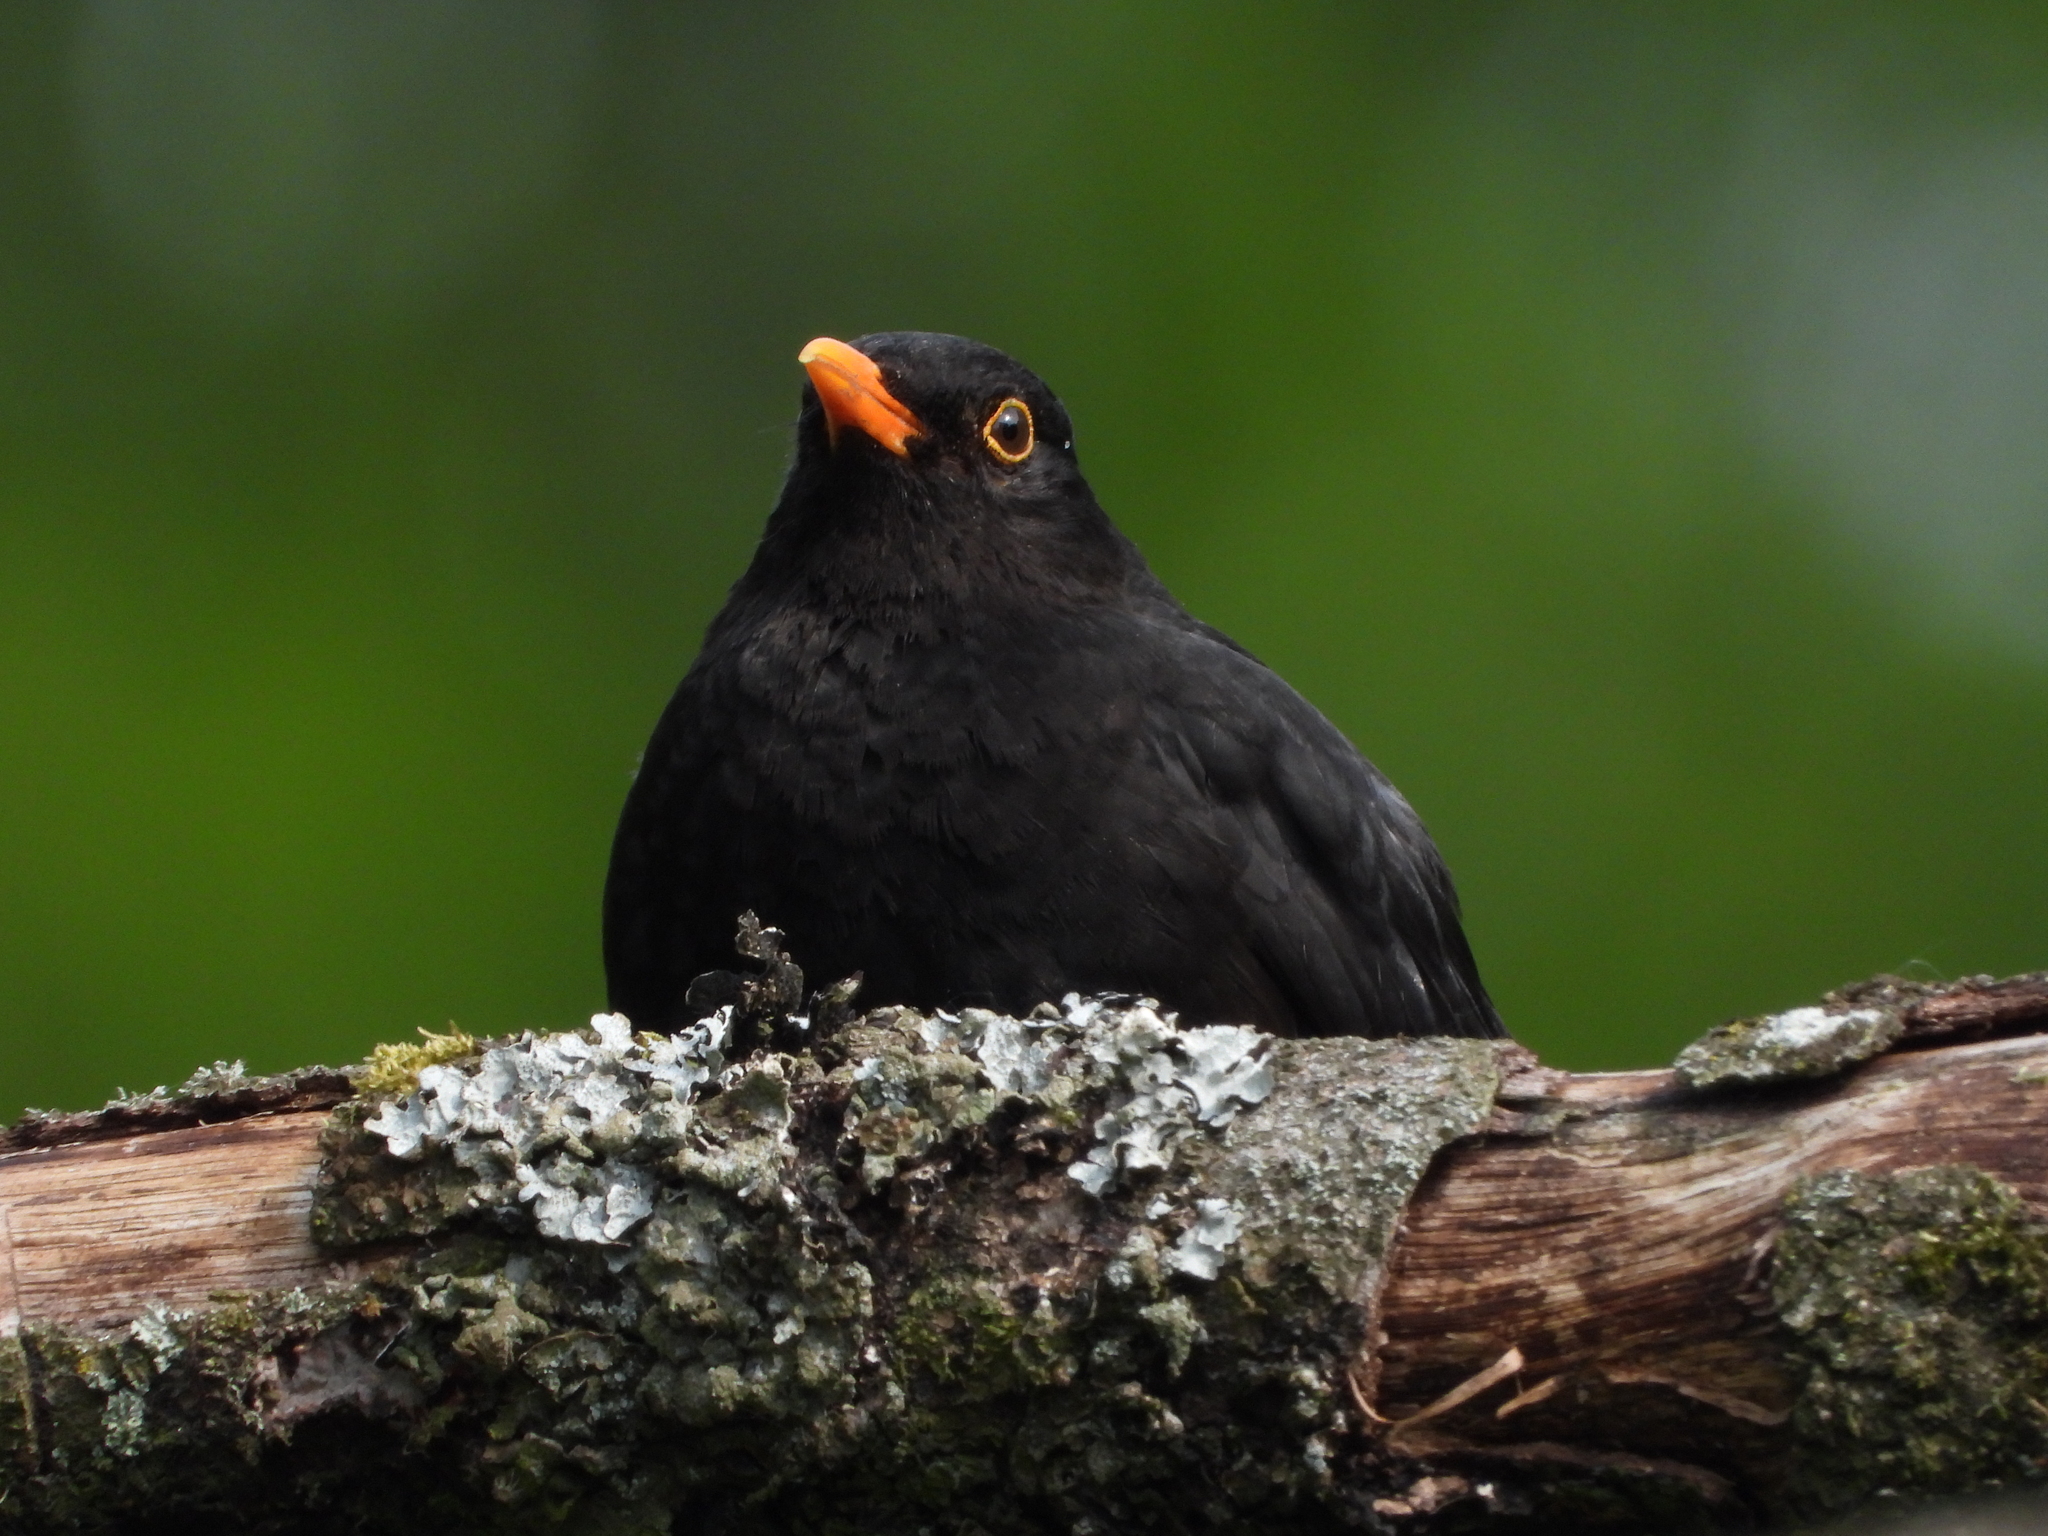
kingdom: Animalia
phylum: Chordata
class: Aves
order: Passeriformes
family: Turdidae
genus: Turdus
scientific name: Turdus merula
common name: Common blackbird
